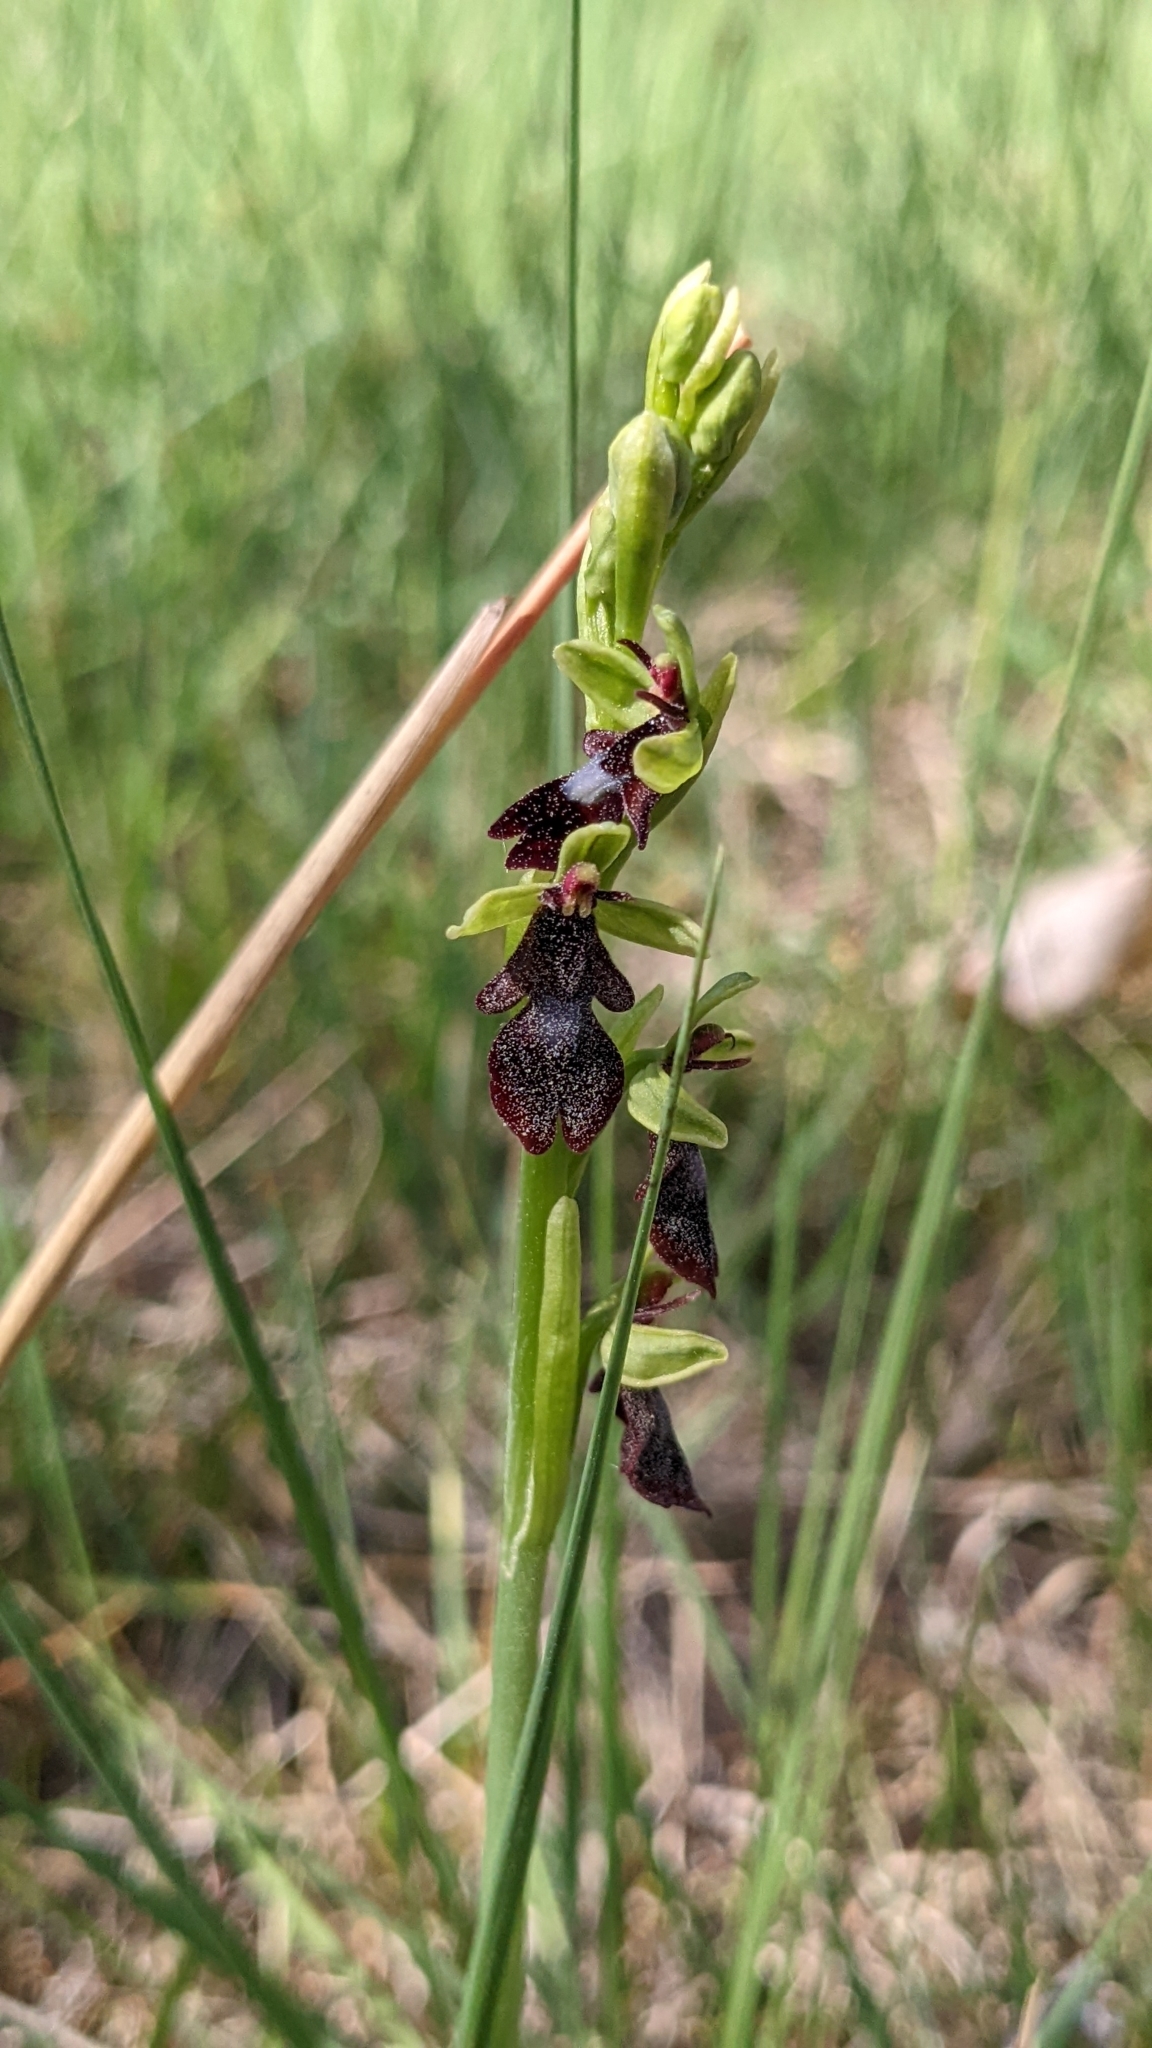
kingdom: Plantae
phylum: Tracheophyta
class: Liliopsida
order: Asparagales
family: Orchidaceae
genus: Ophrys
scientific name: Ophrys insectifera
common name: Fly orchid
